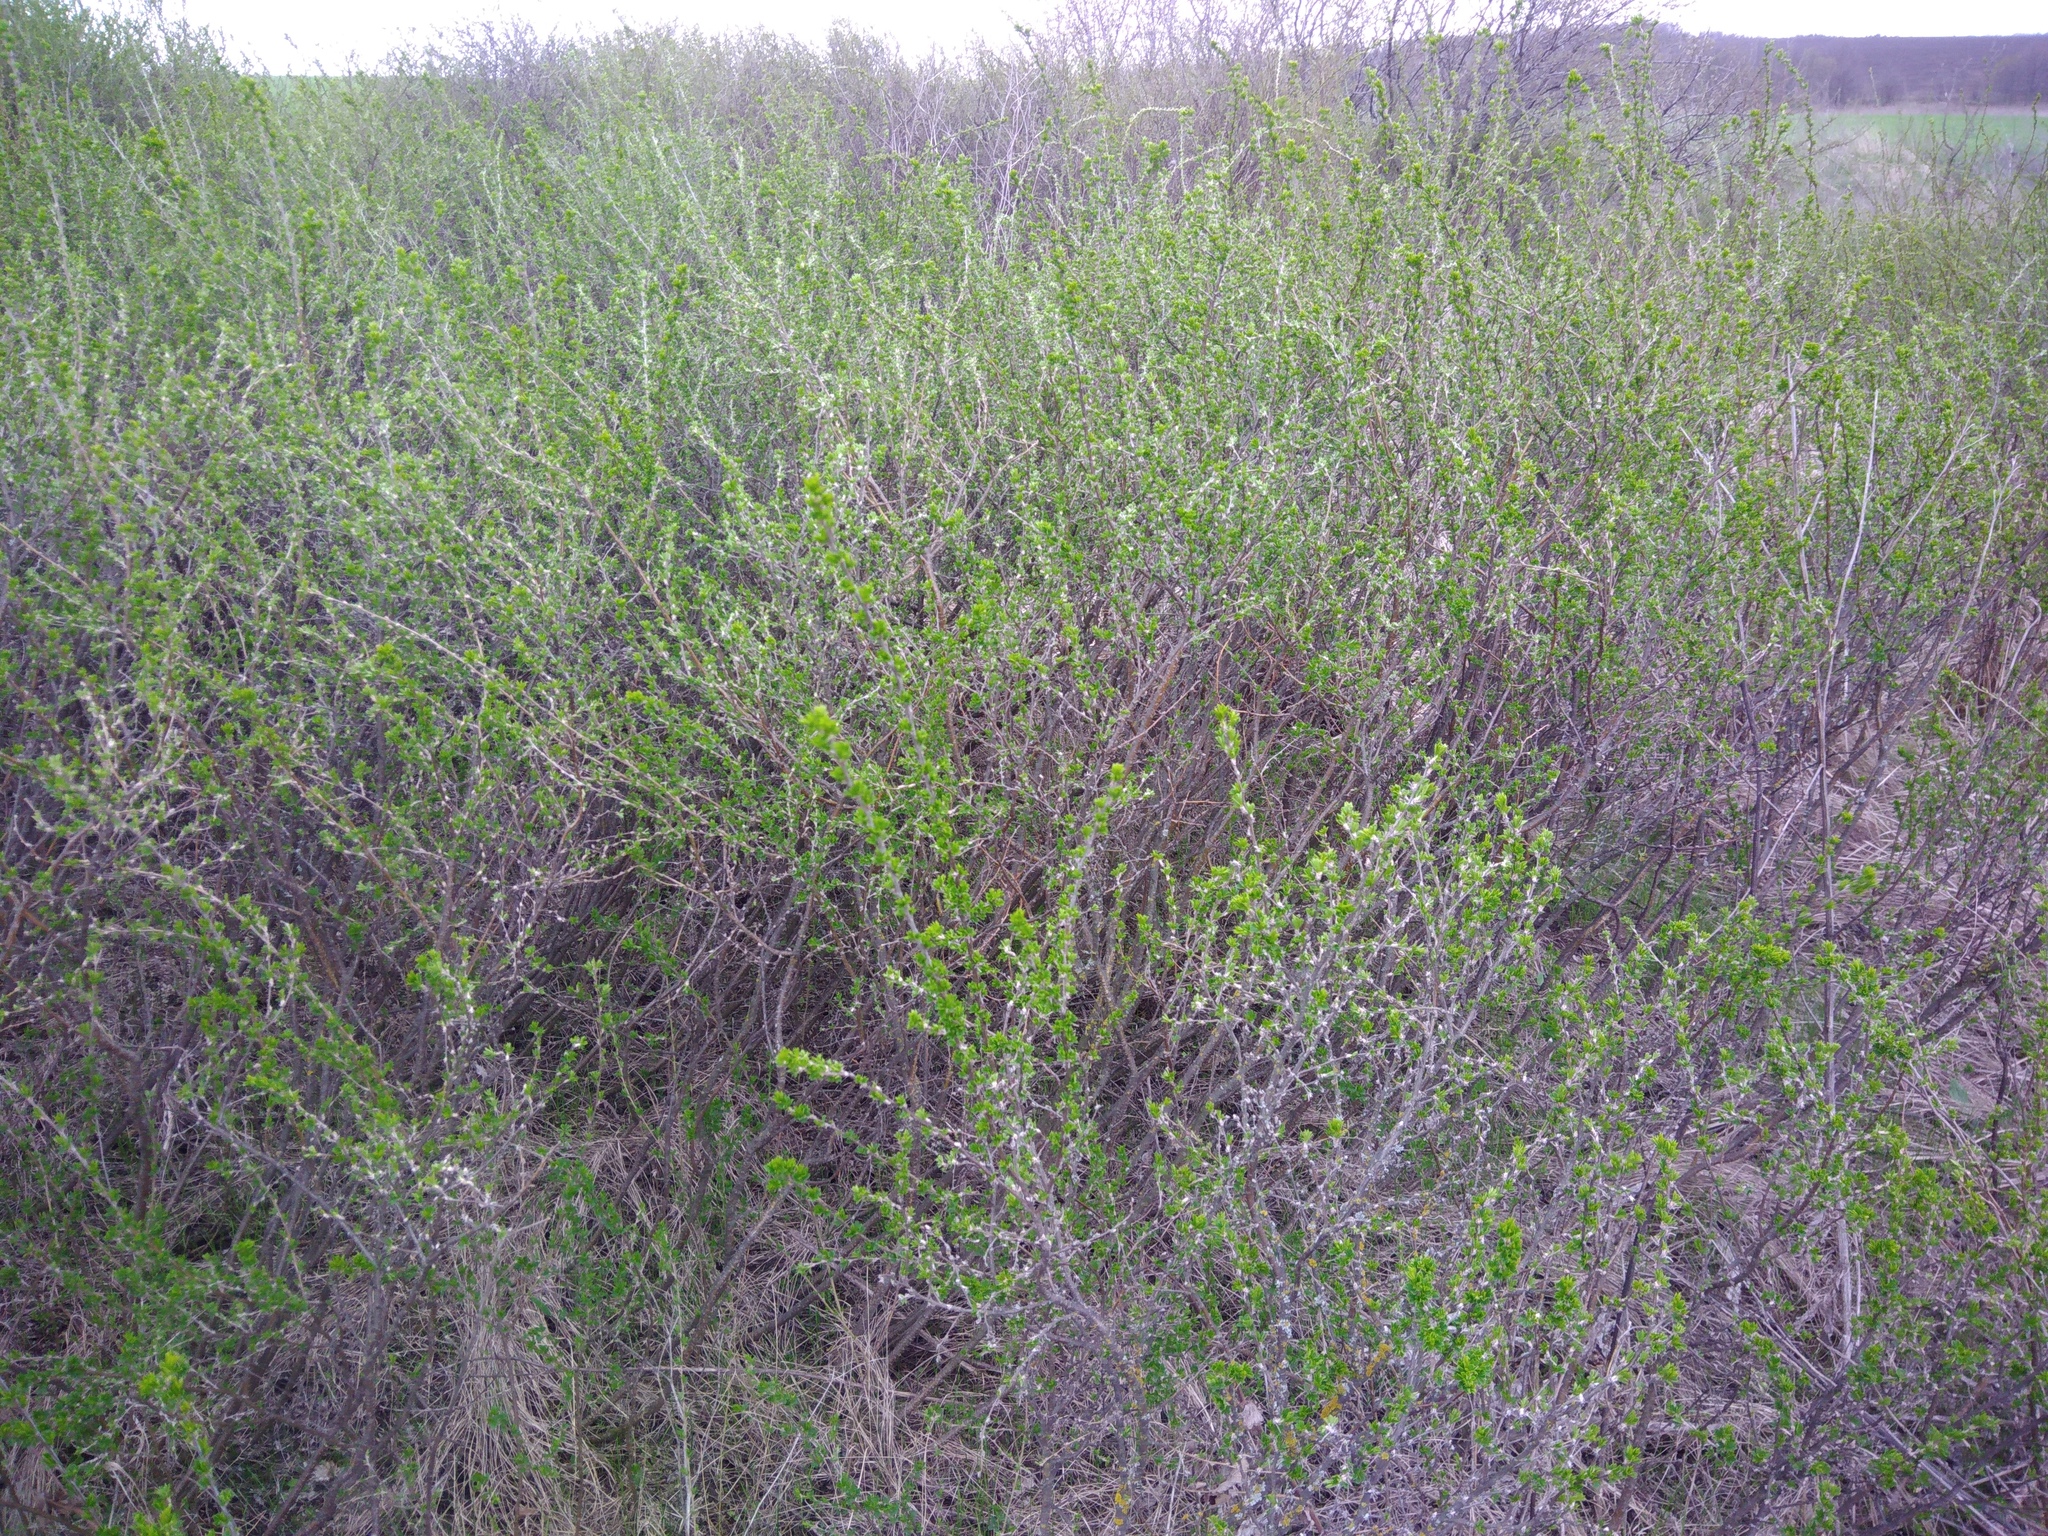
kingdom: Plantae
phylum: Tracheophyta
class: Magnoliopsida
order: Fabales
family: Fabaceae
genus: Caragana
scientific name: Caragana frutex
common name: Russian peashrub
